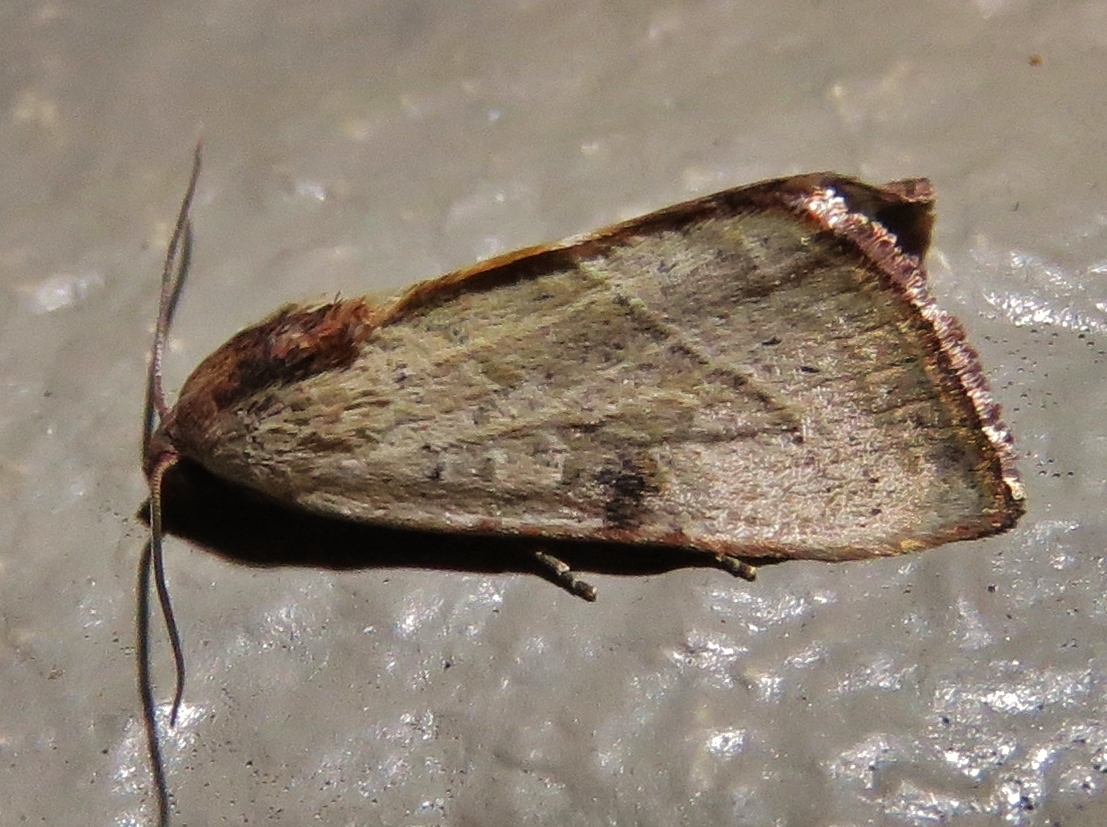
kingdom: Animalia
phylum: Arthropoda
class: Insecta
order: Lepidoptera
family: Noctuidae
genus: Galgula
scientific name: Galgula partita
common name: Wedgeling
